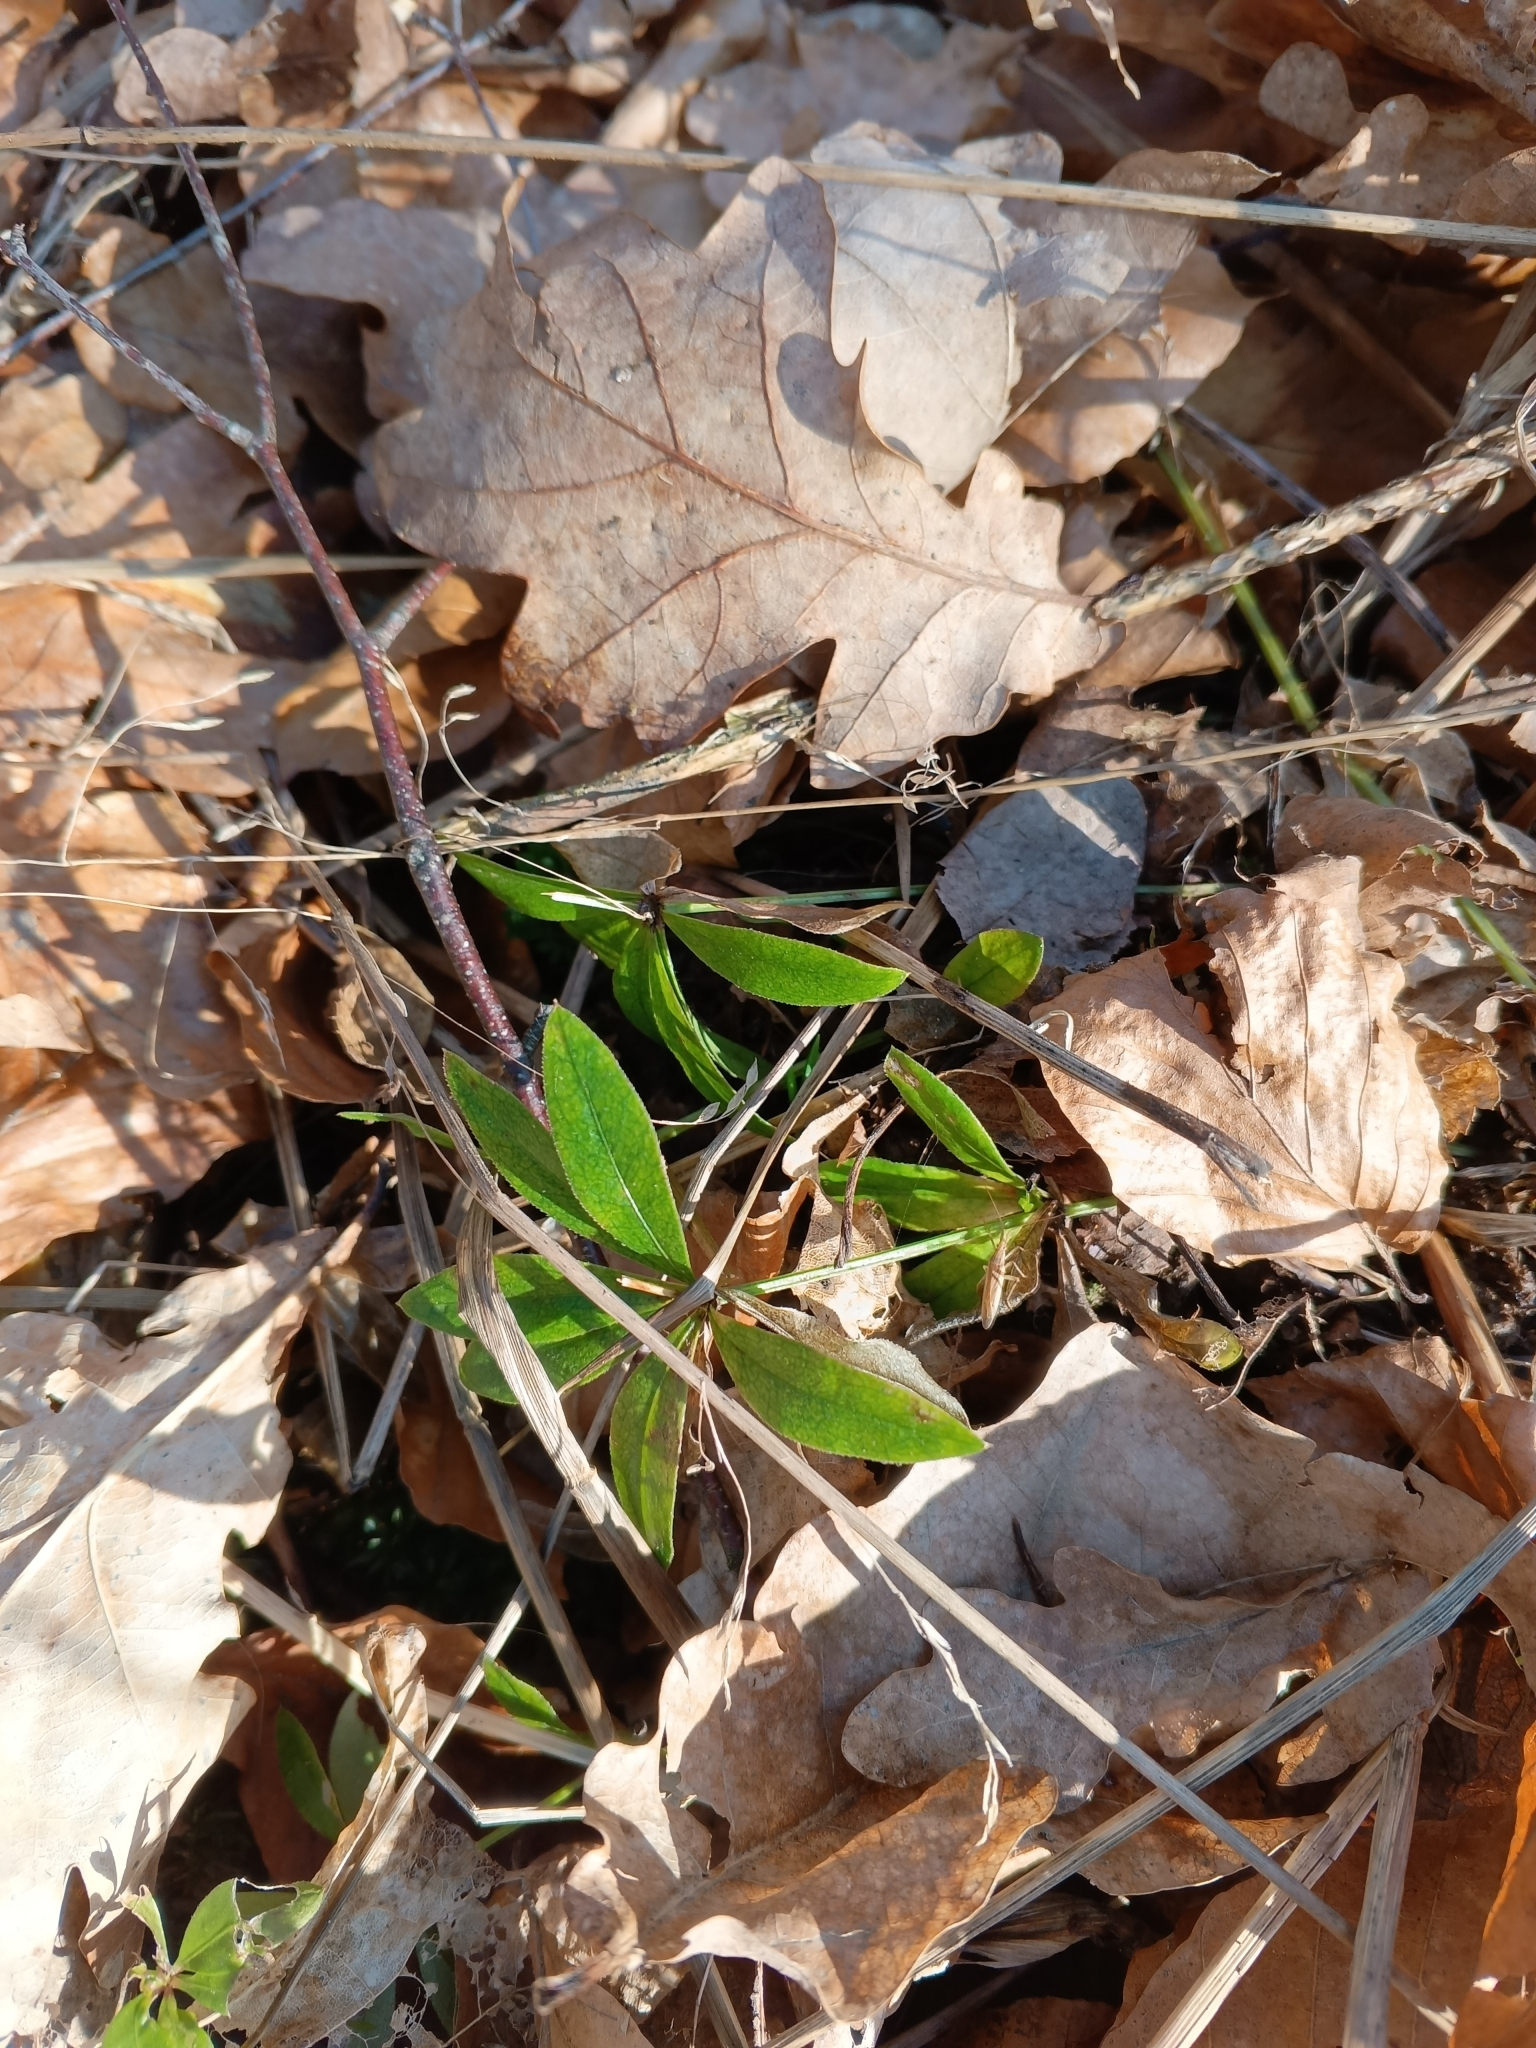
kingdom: Plantae
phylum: Tracheophyta
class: Magnoliopsida
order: Gentianales
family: Rubiaceae
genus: Galium
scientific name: Galium odoratum
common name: Sweet woodruff
